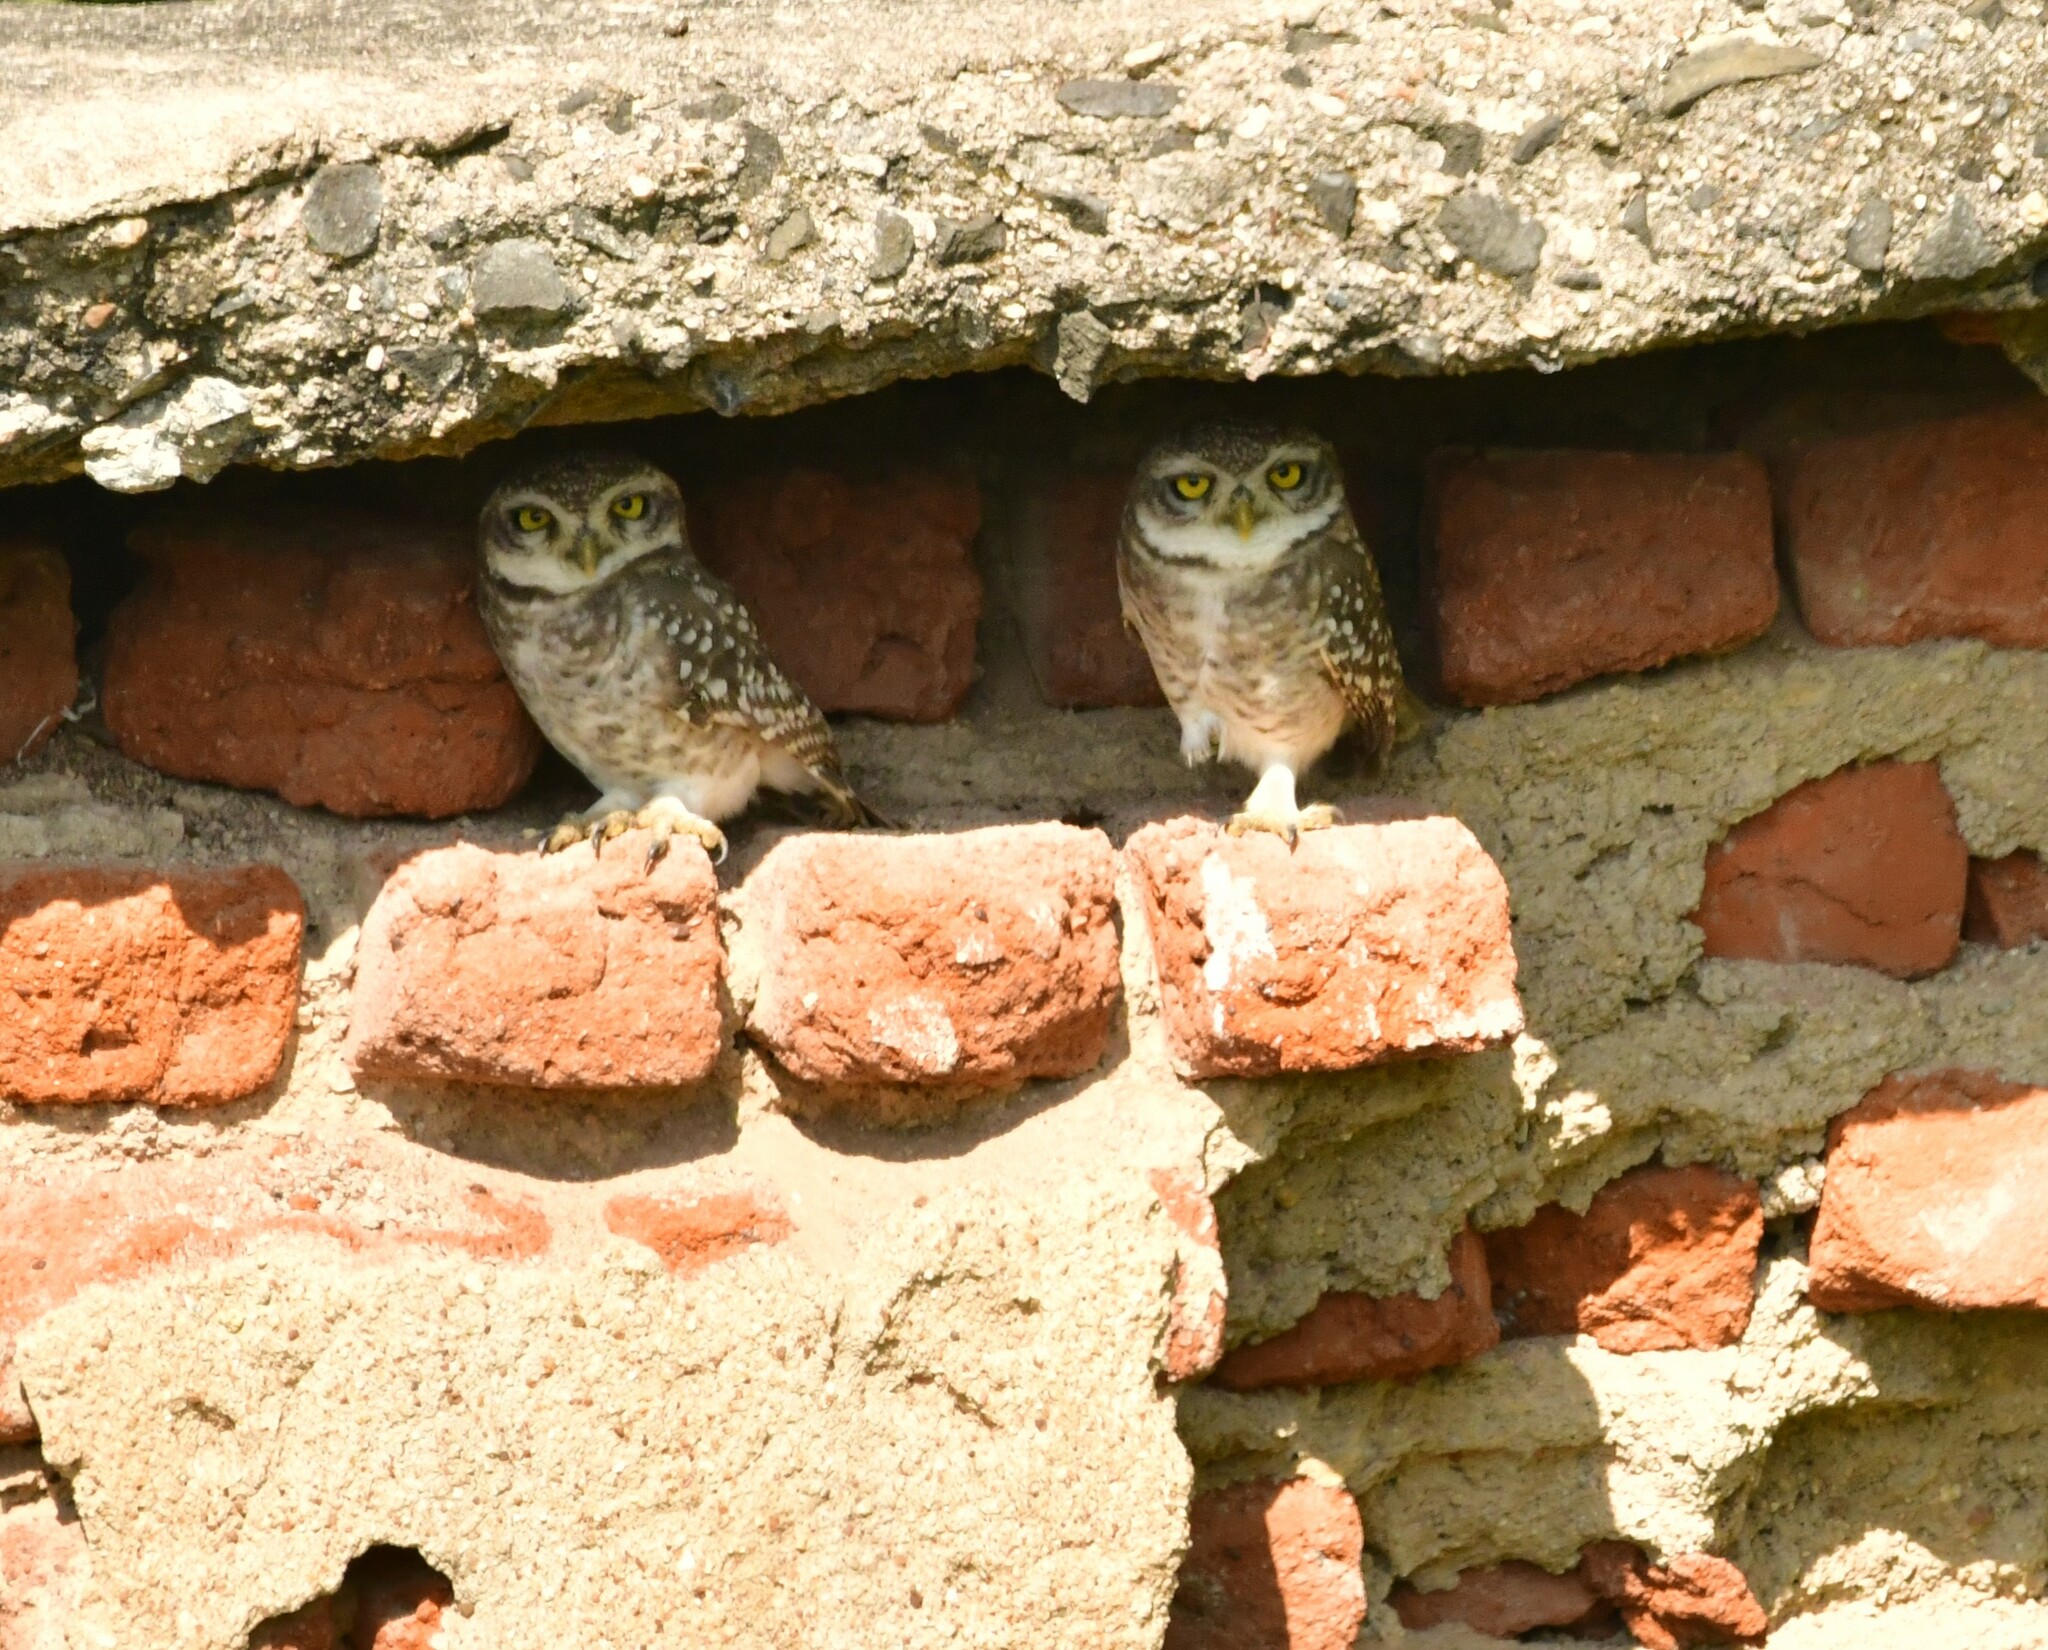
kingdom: Animalia
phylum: Chordata
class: Aves
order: Strigiformes
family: Strigidae
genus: Athene
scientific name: Athene brama
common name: Spotted owlet
